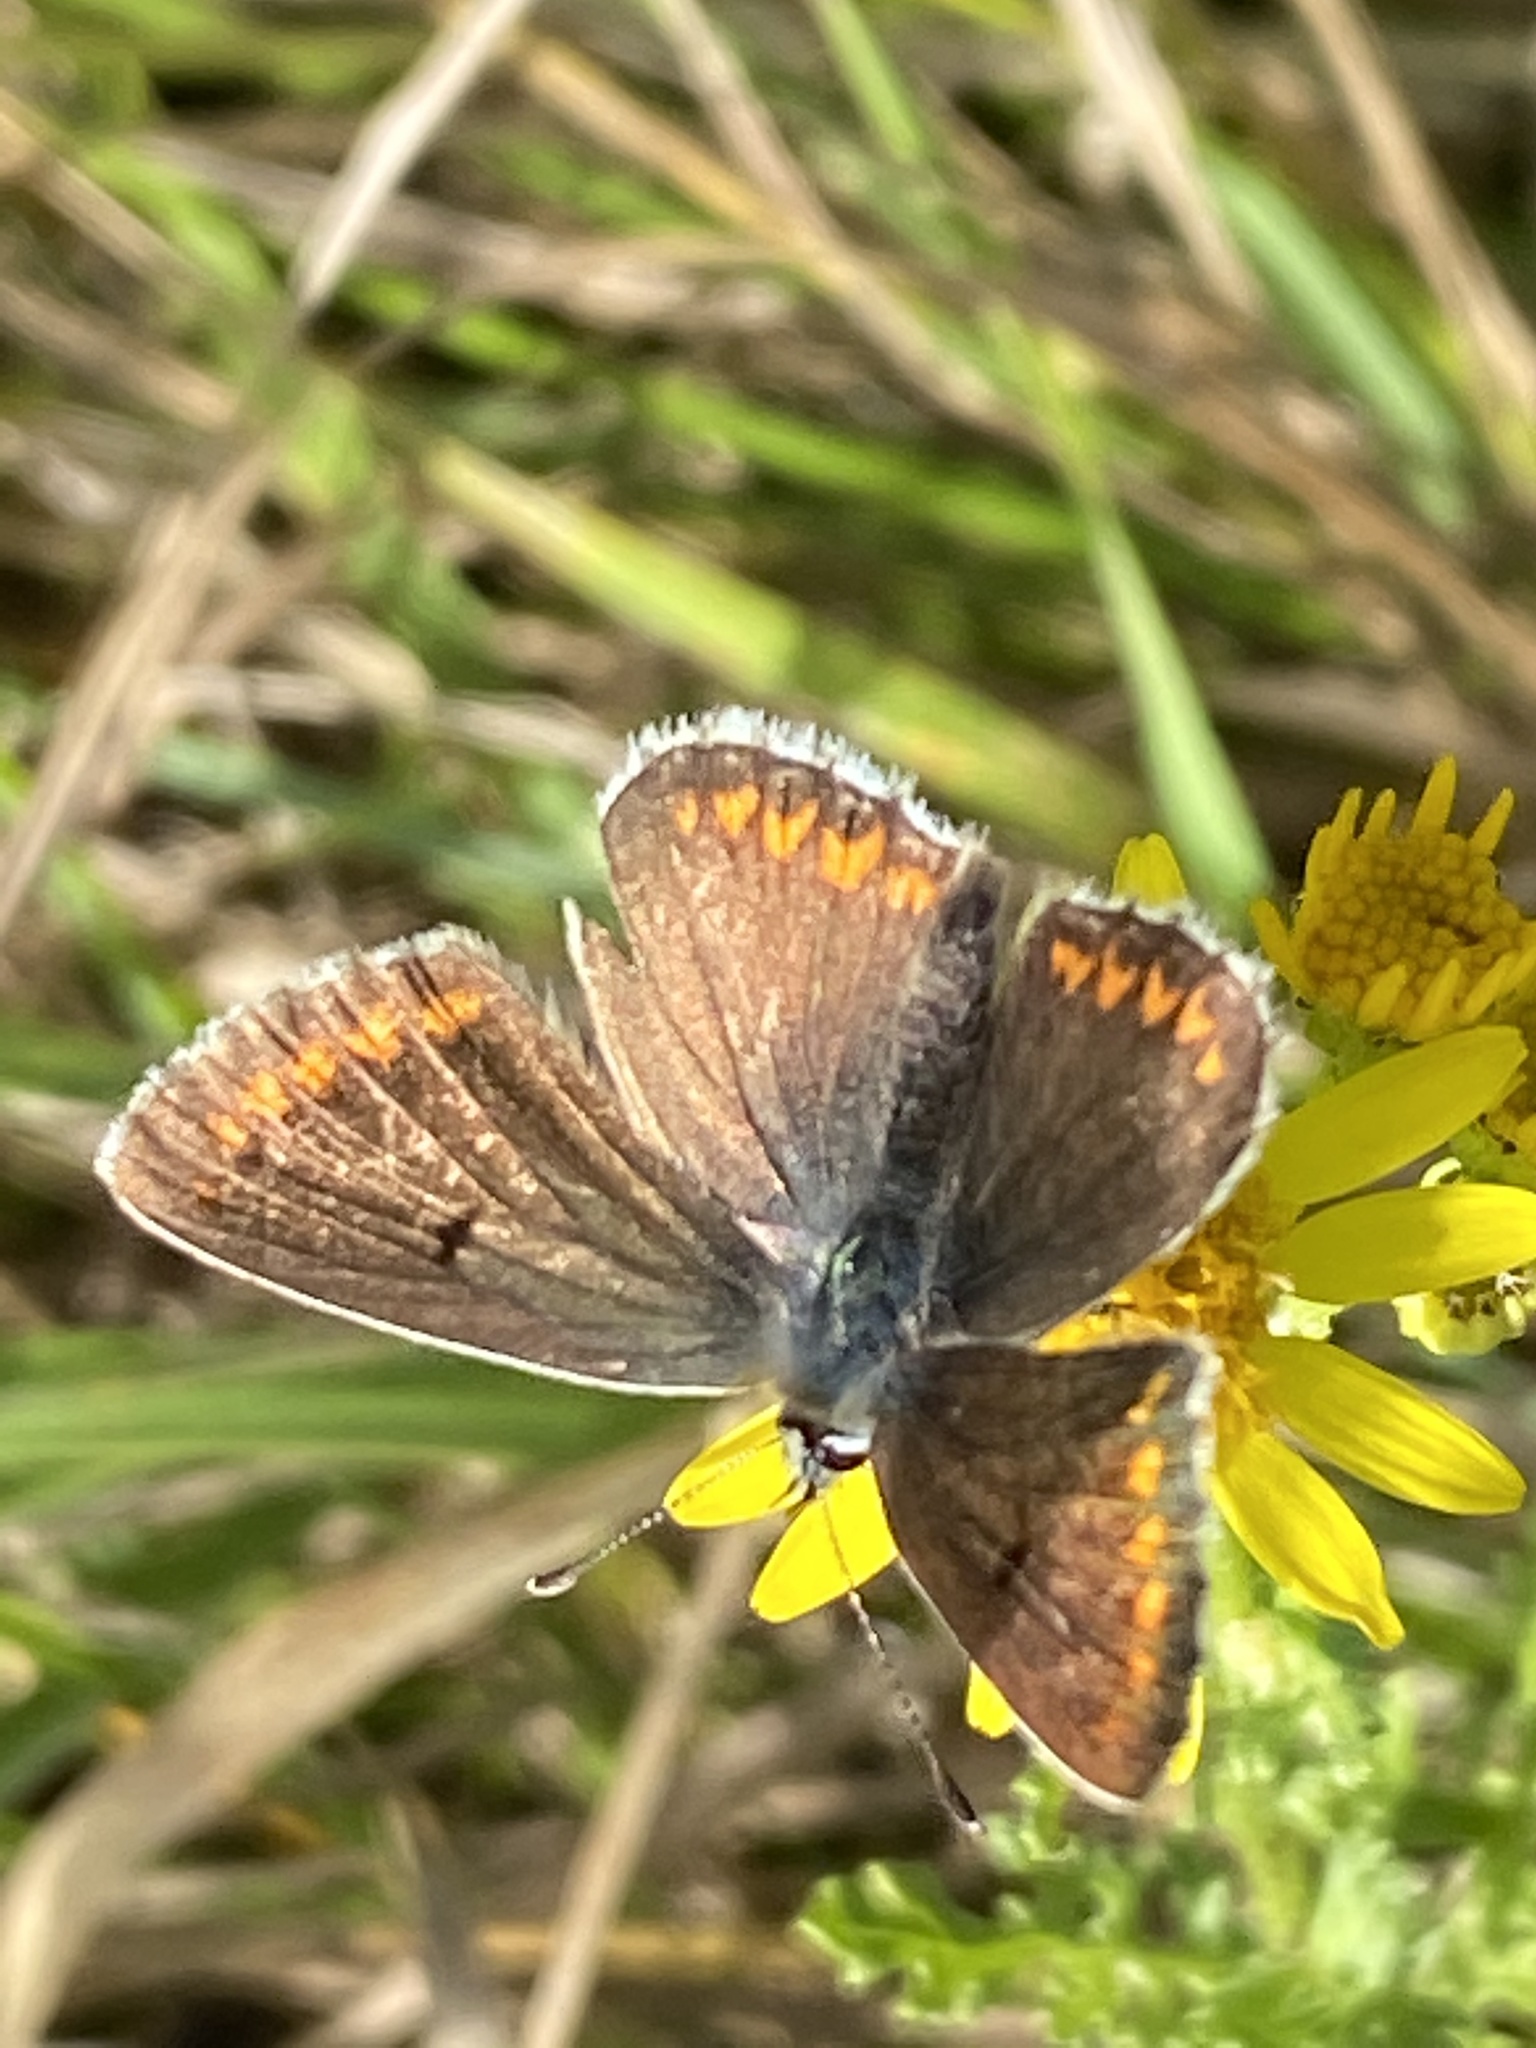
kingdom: Animalia
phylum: Arthropoda
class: Insecta
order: Lepidoptera
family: Lycaenidae
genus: Aricia
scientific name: Aricia agestis
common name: Brown argus
